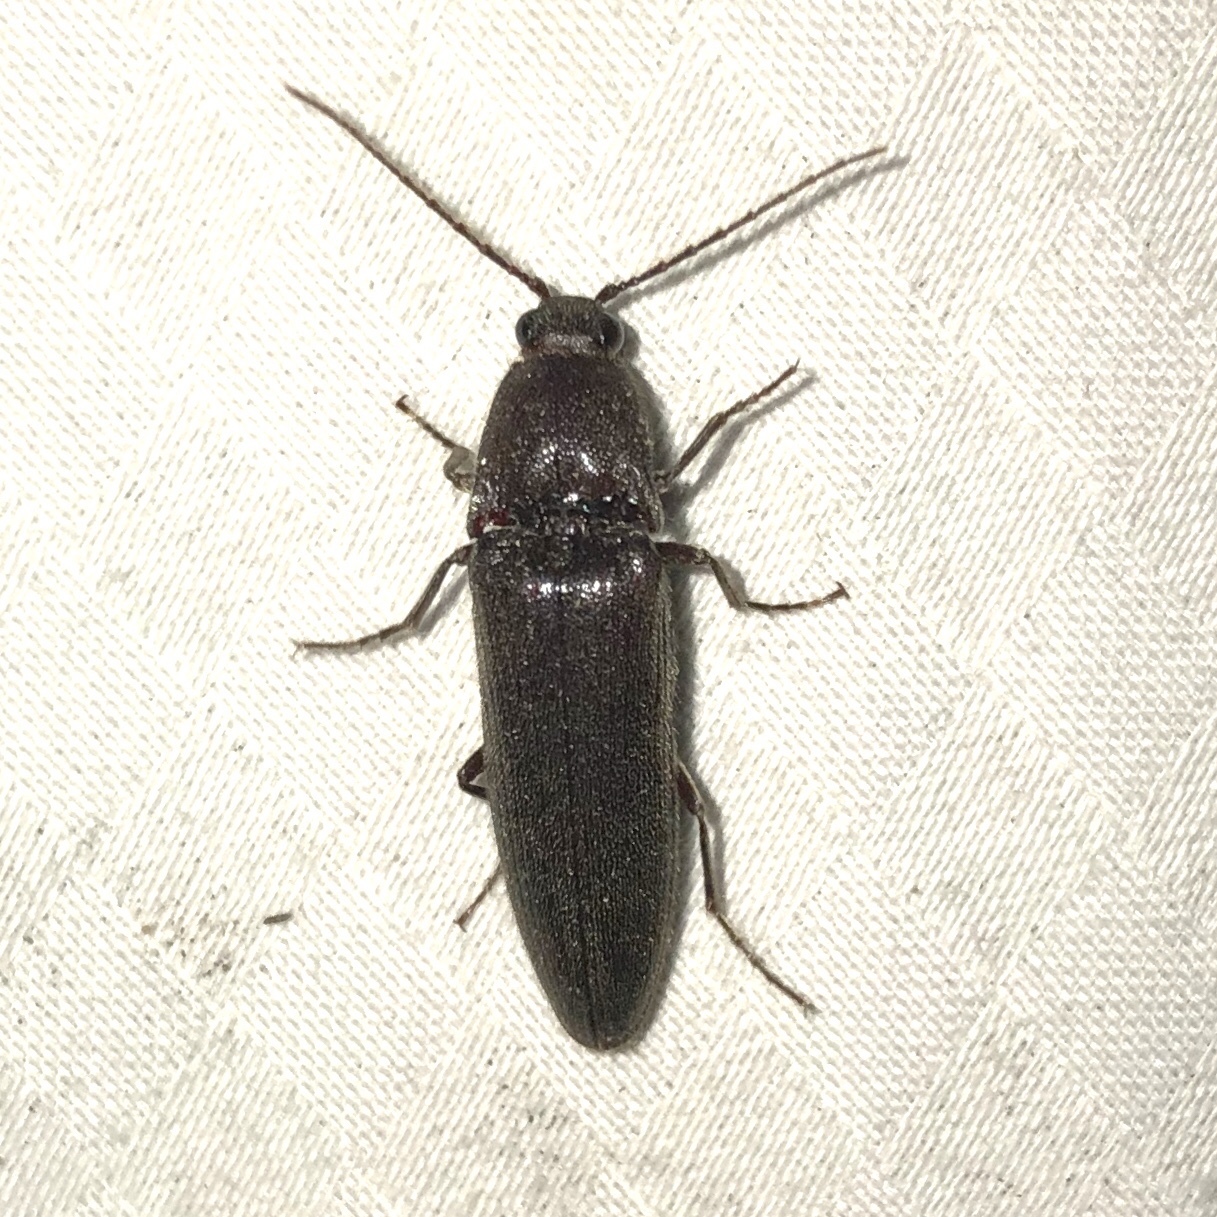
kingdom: Animalia
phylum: Arthropoda
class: Insecta
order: Coleoptera
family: Elateridae
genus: Melanotus
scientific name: Melanotus castanipes
